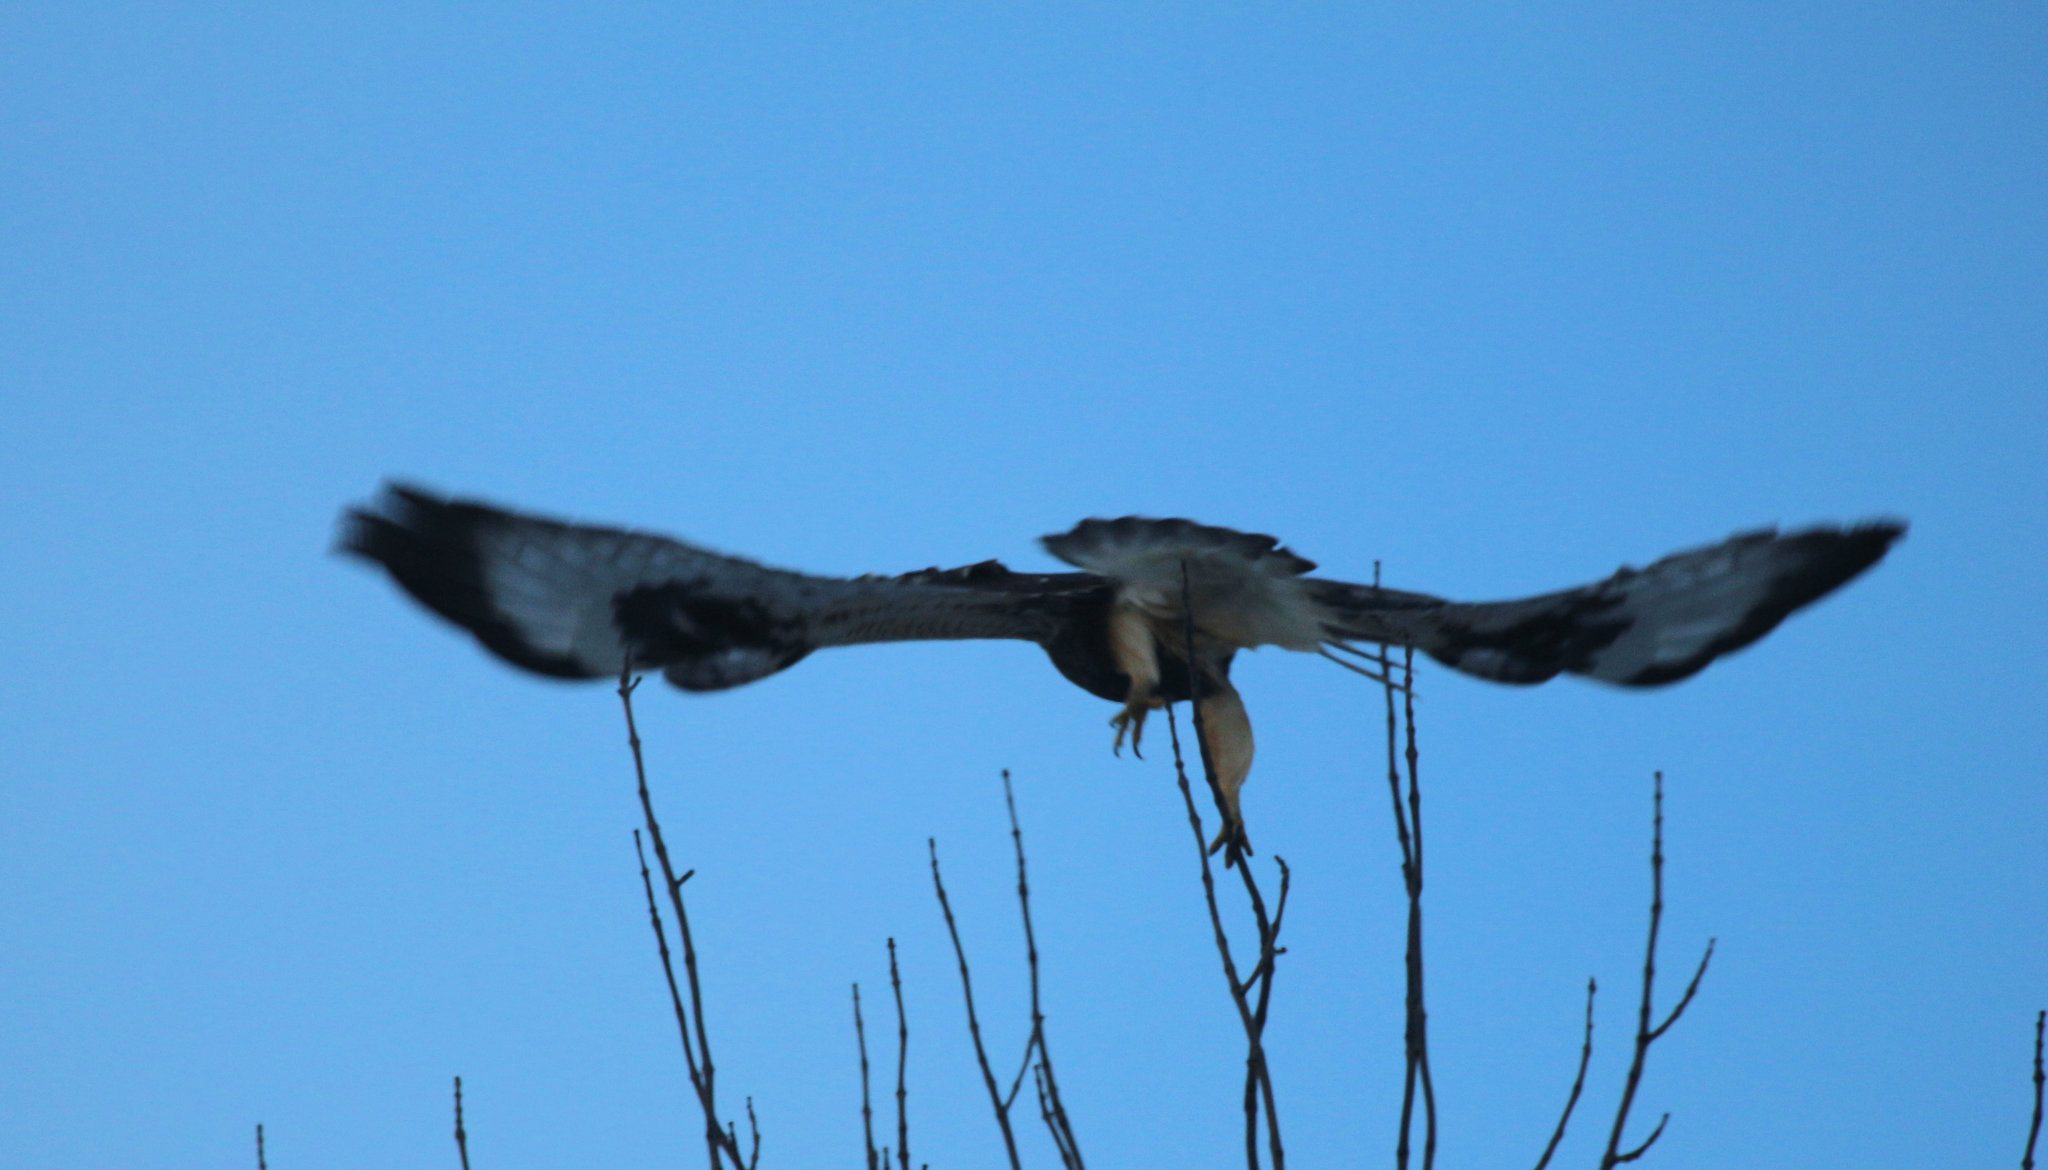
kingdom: Animalia
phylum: Chordata
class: Aves
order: Accipitriformes
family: Accipitridae
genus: Buteo
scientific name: Buteo lagopus
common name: Rough-legged buzzard
